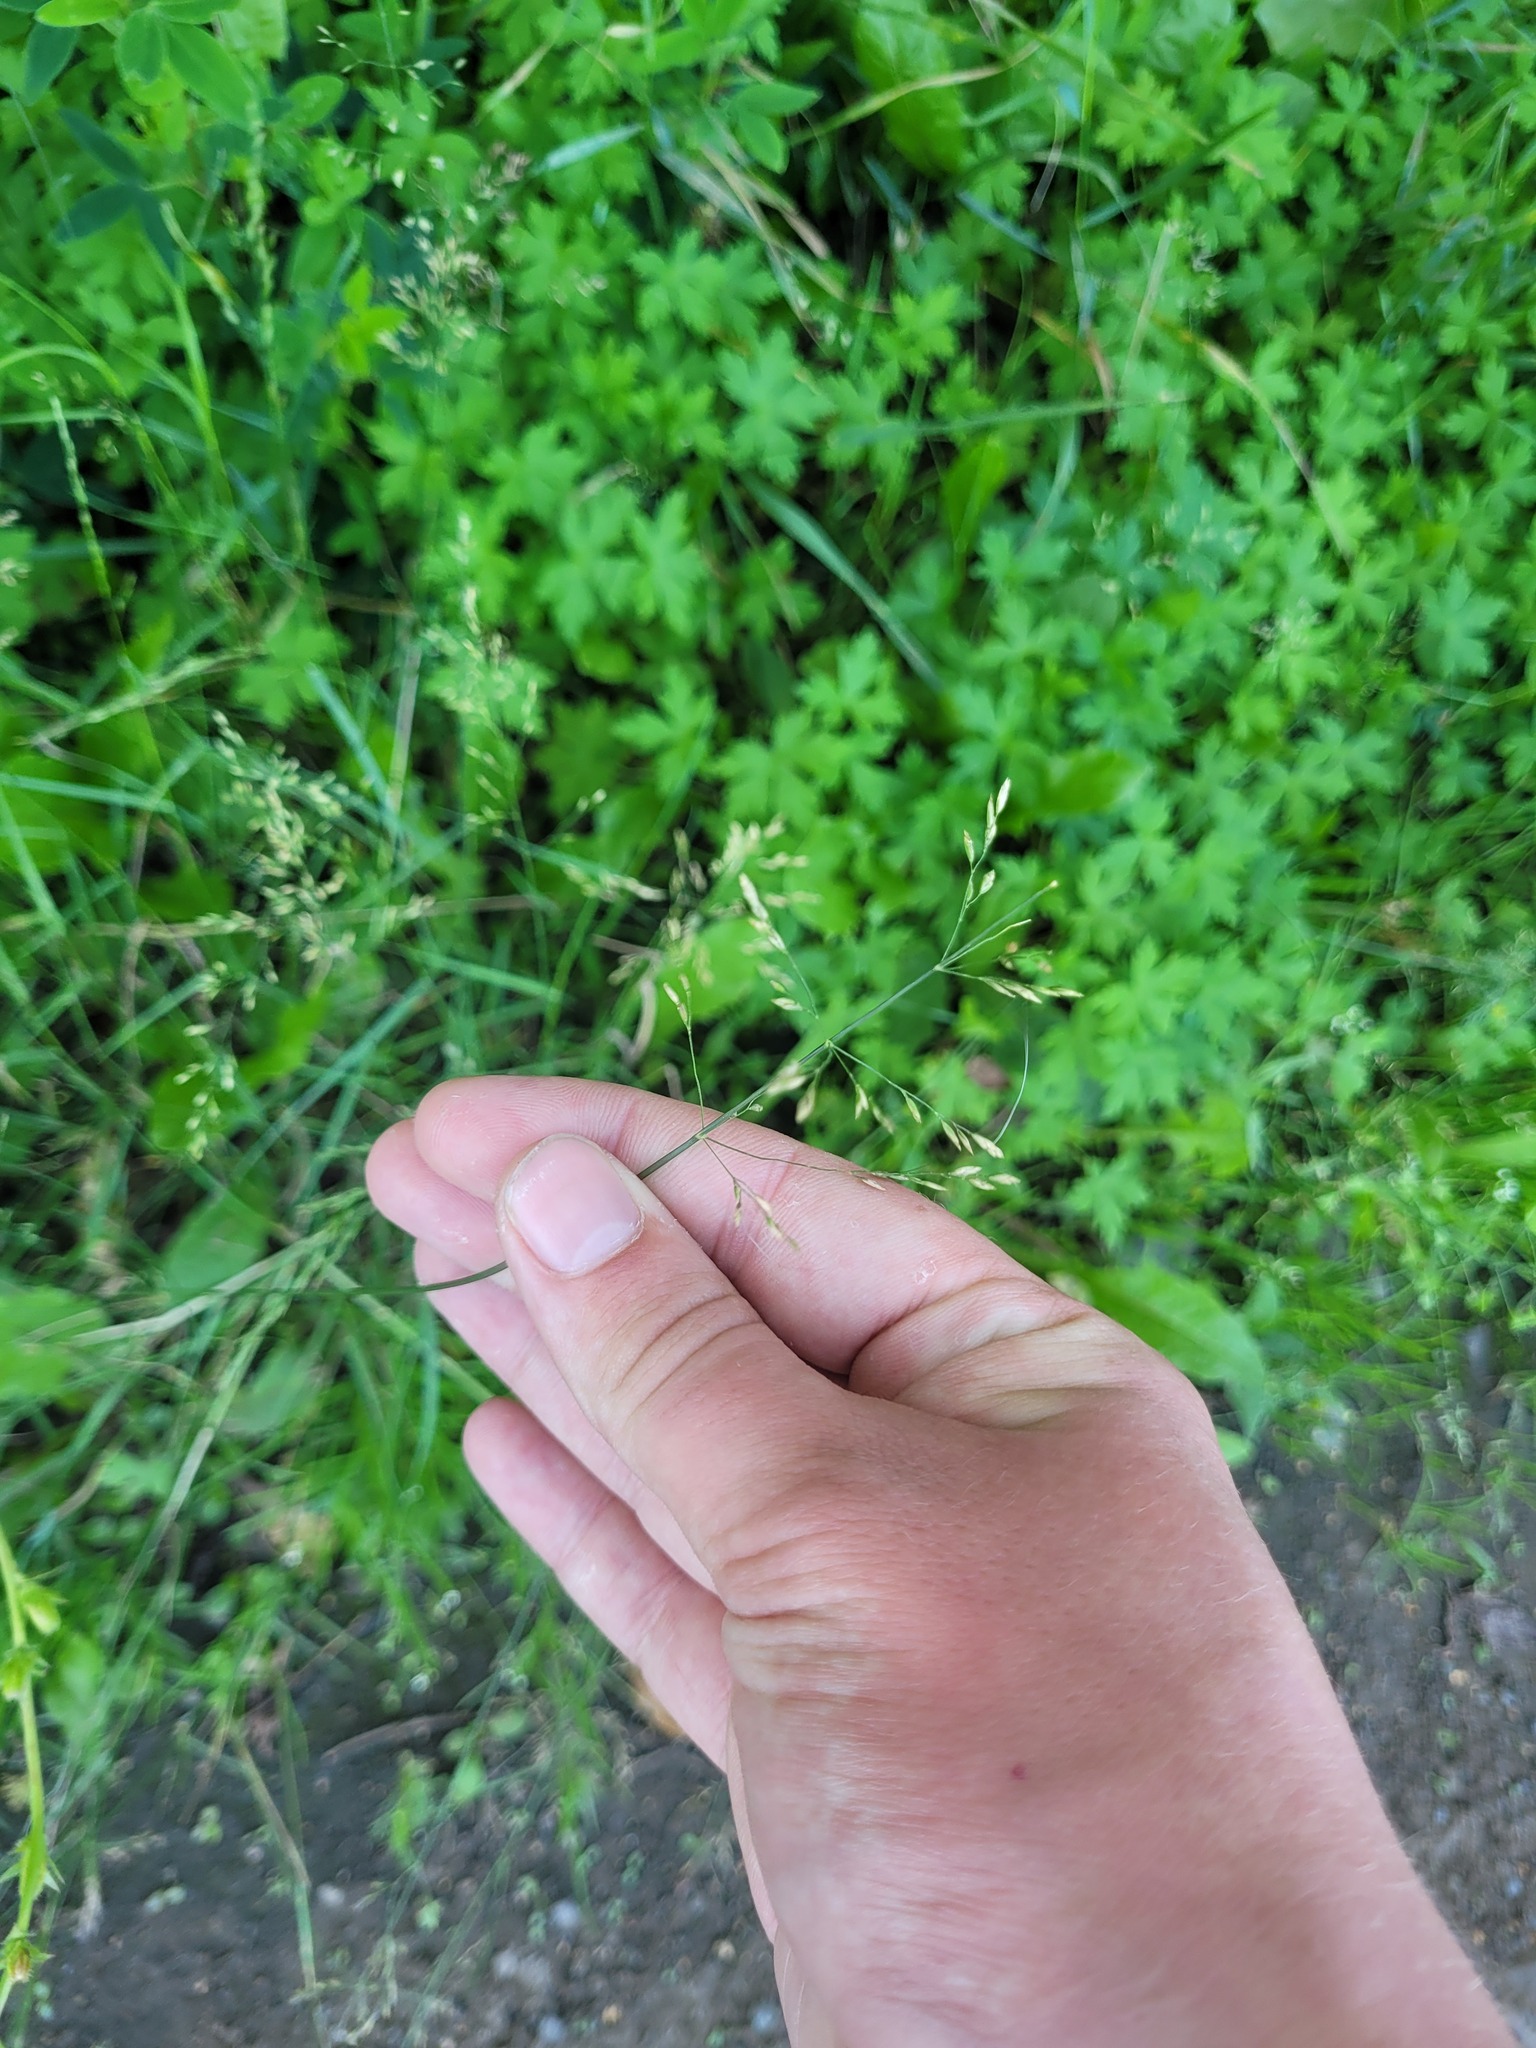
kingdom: Plantae
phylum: Tracheophyta
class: Liliopsida
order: Poales
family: Poaceae
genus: Poa
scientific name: Poa palustris
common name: Swamp meadow-grass
